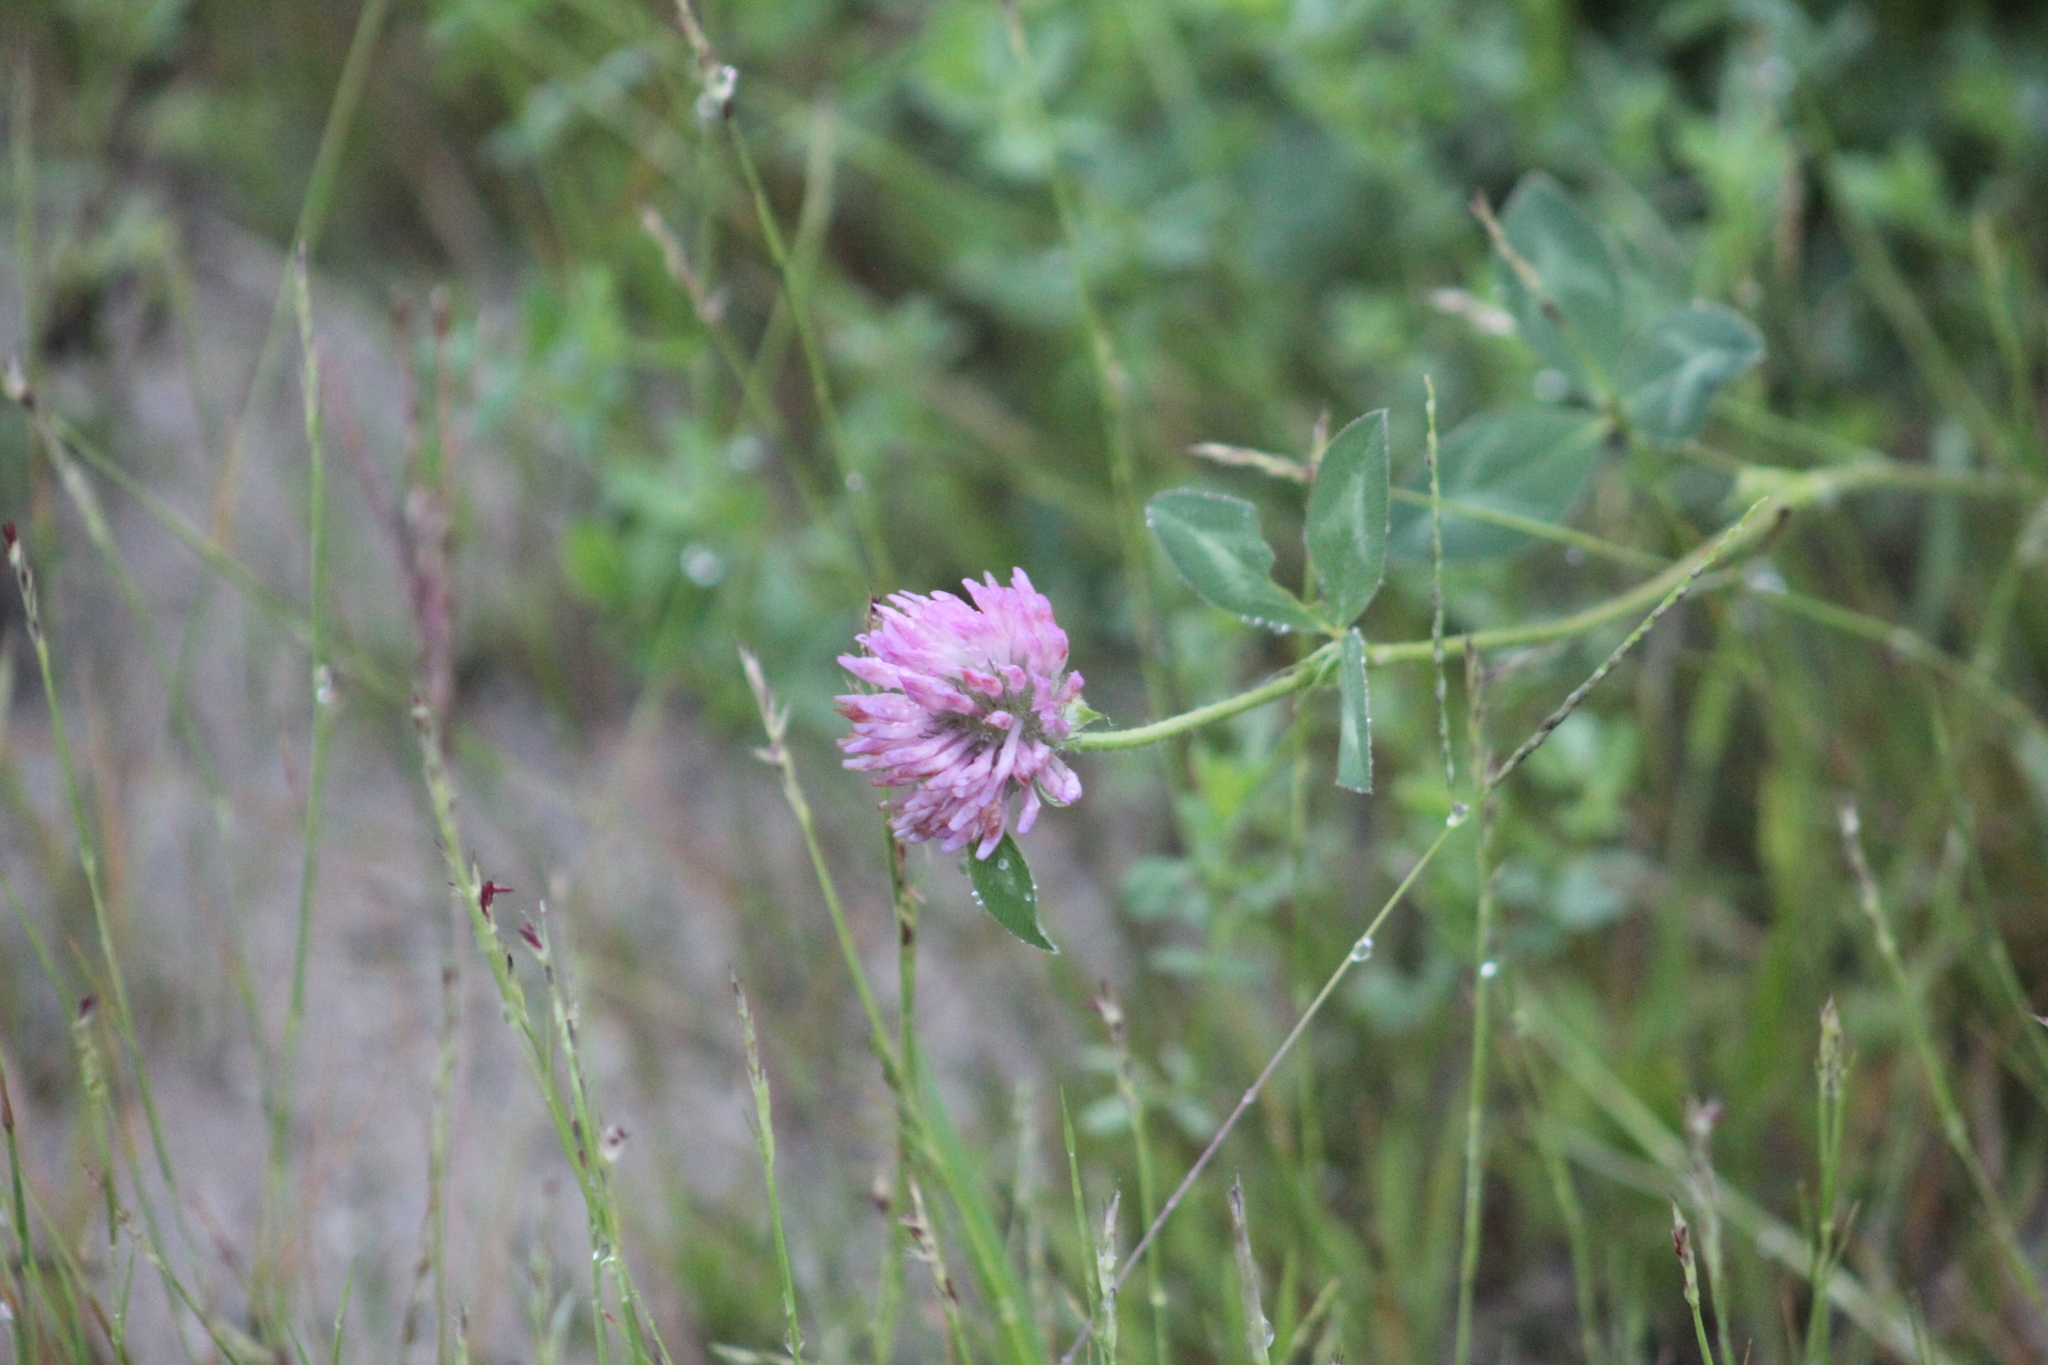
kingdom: Plantae
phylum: Tracheophyta
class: Magnoliopsida
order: Fabales
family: Fabaceae
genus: Trifolium
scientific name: Trifolium pratense
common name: Red clover
